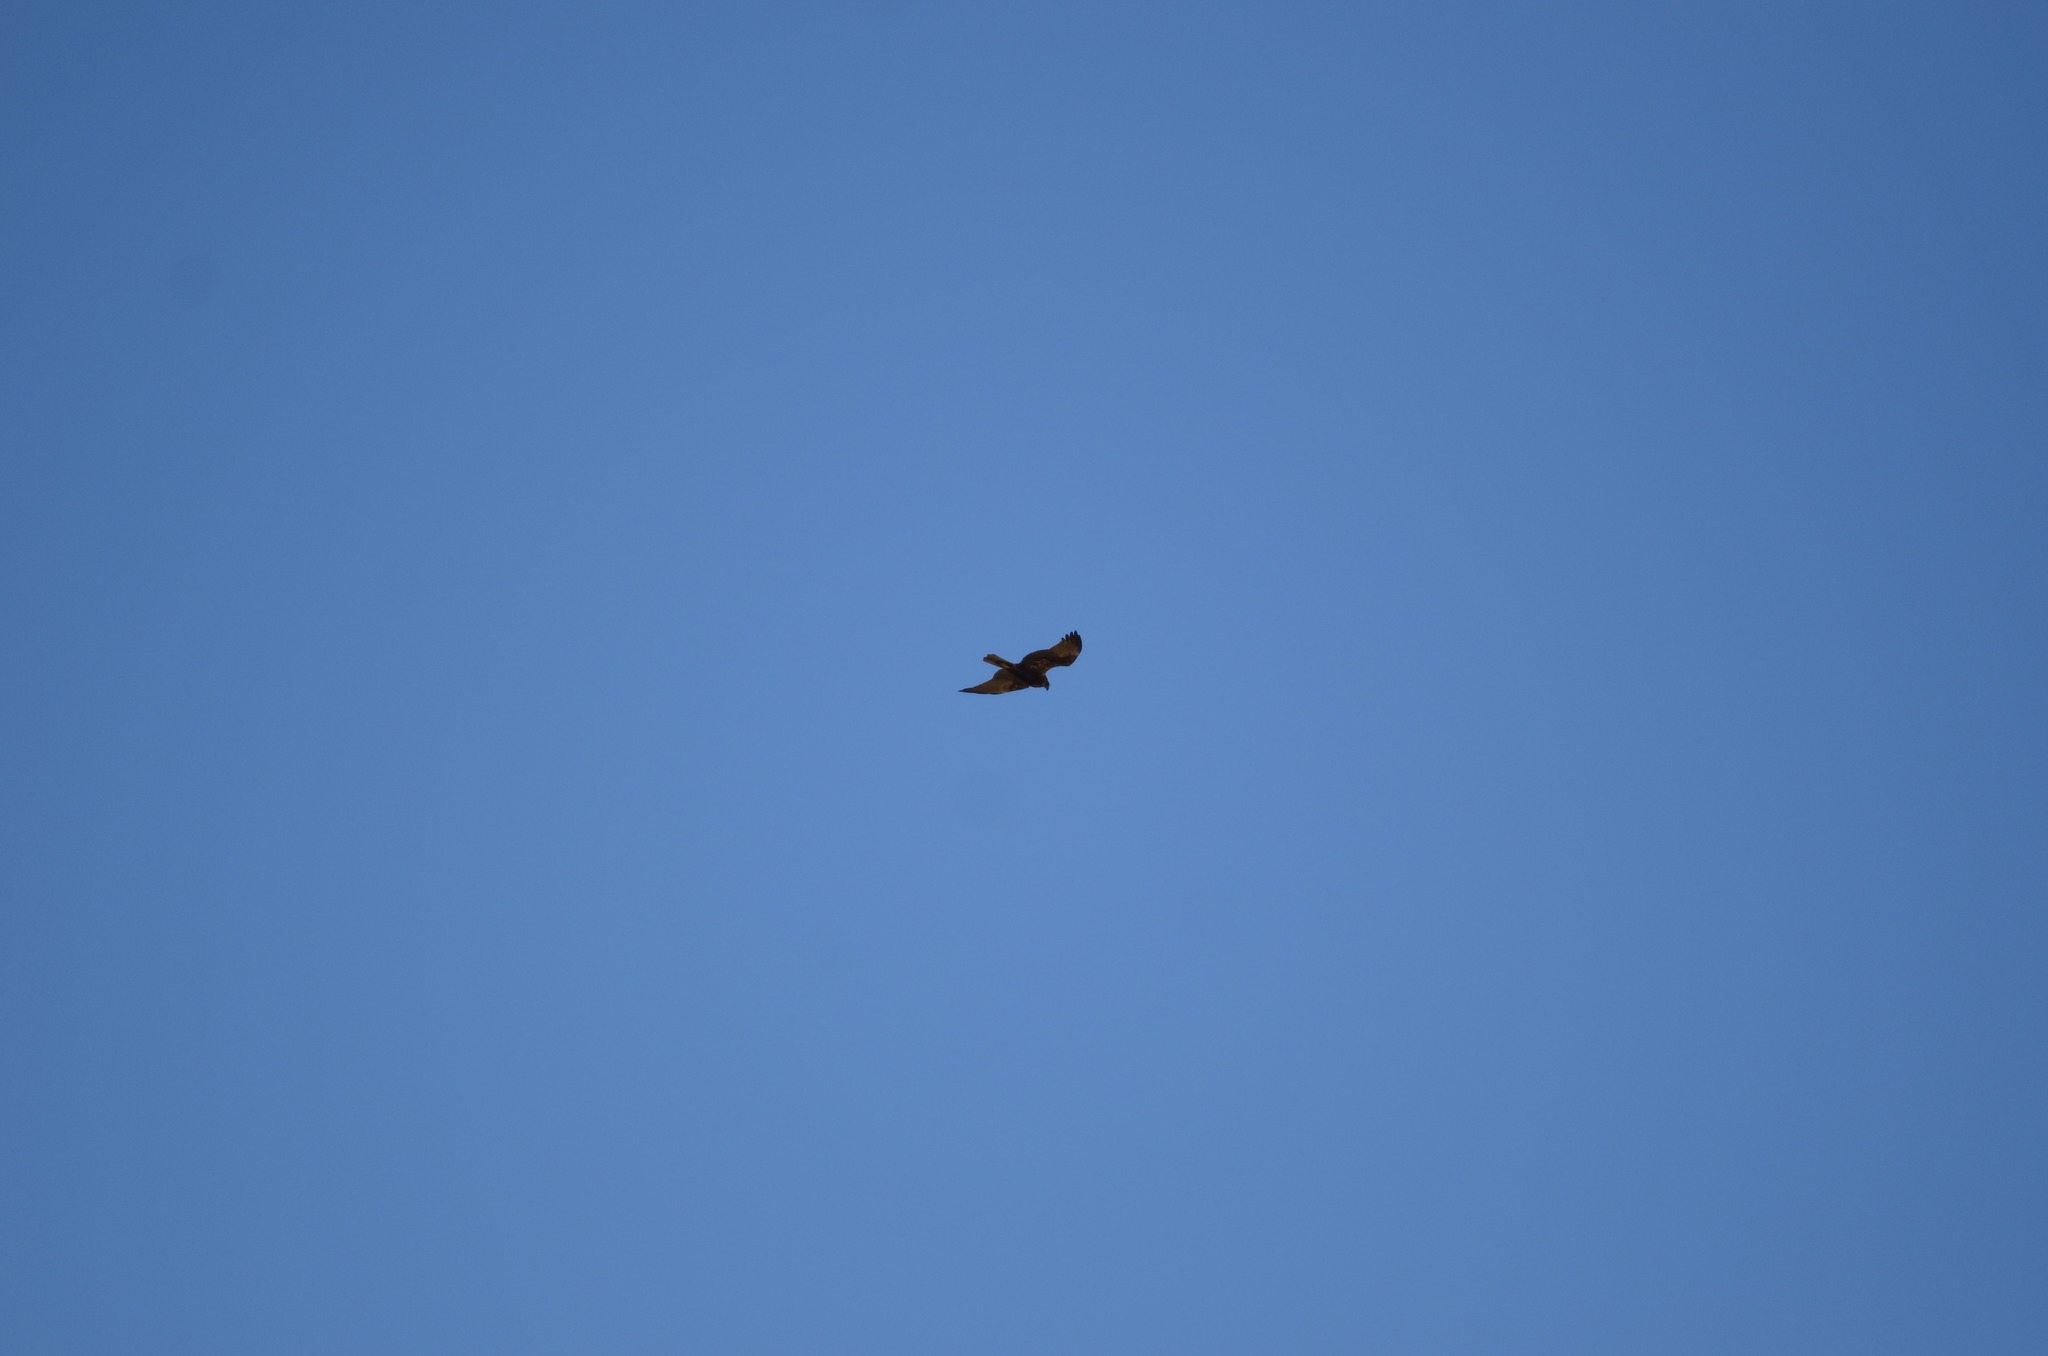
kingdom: Animalia
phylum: Chordata
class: Aves
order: Accipitriformes
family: Accipitridae
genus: Circus
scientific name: Circus aeruginosus
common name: Western marsh harrier
